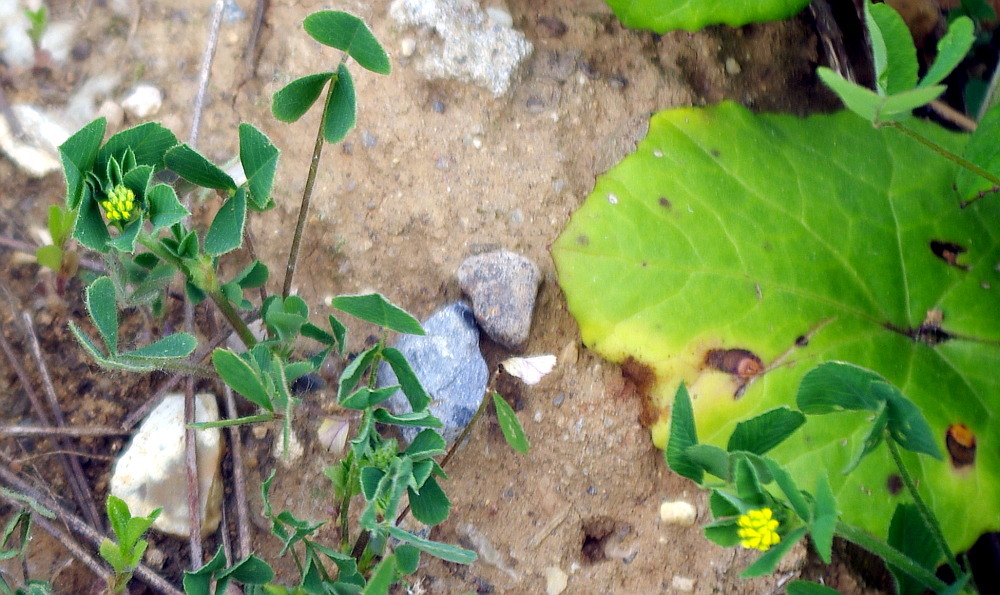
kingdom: Plantae
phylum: Tracheophyta
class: Magnoliopsida
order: Fabales
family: Fabaceae
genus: Medicago
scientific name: Medicago lupulina
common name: Black medick
